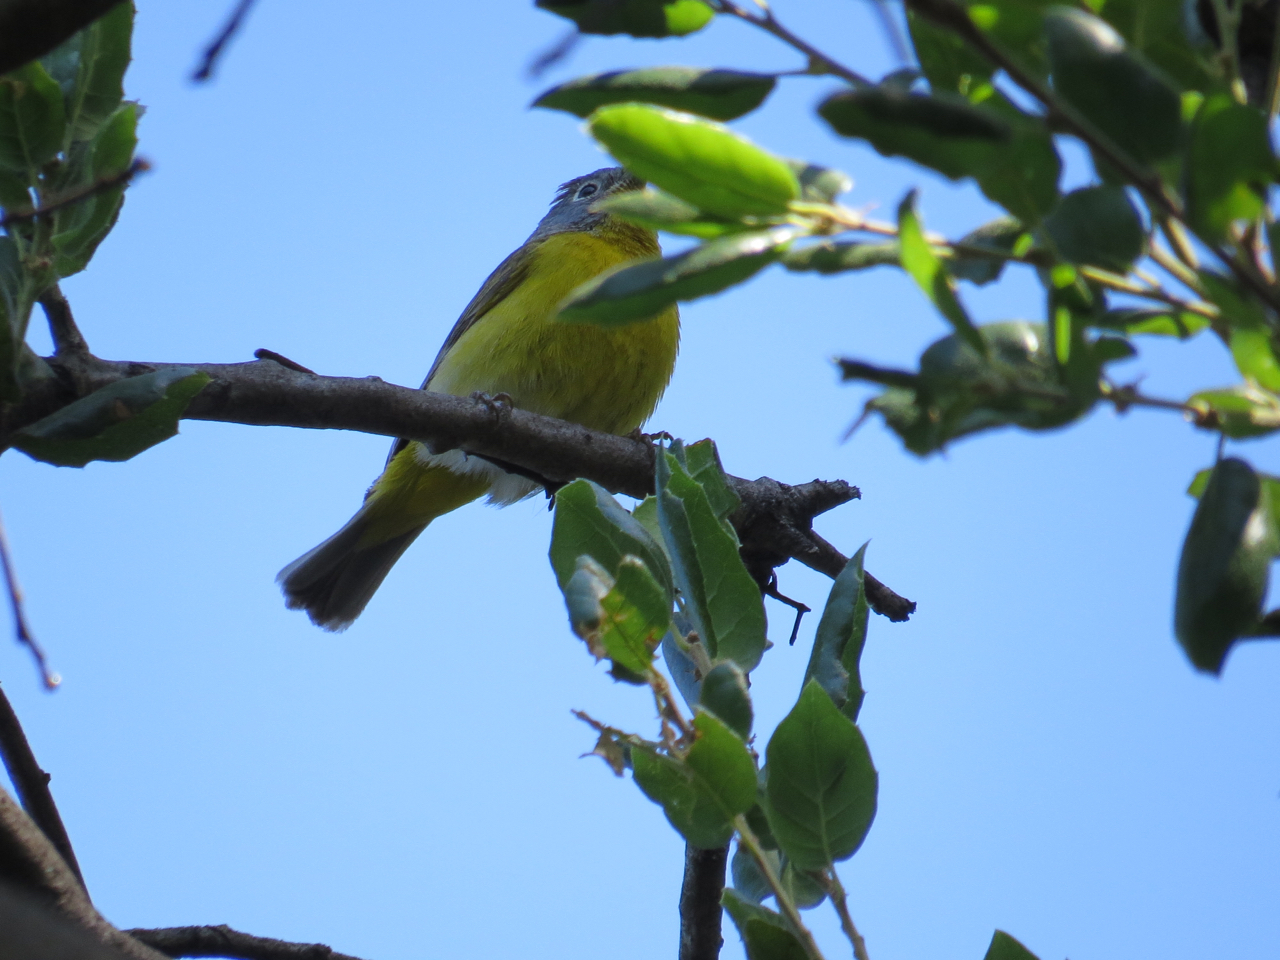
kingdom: Animalia
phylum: Chordata
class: Aves
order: Passeriformes
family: Parulidae
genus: Leiothlypis
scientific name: Leiothlypis ruficapilla
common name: Nashville warbler
